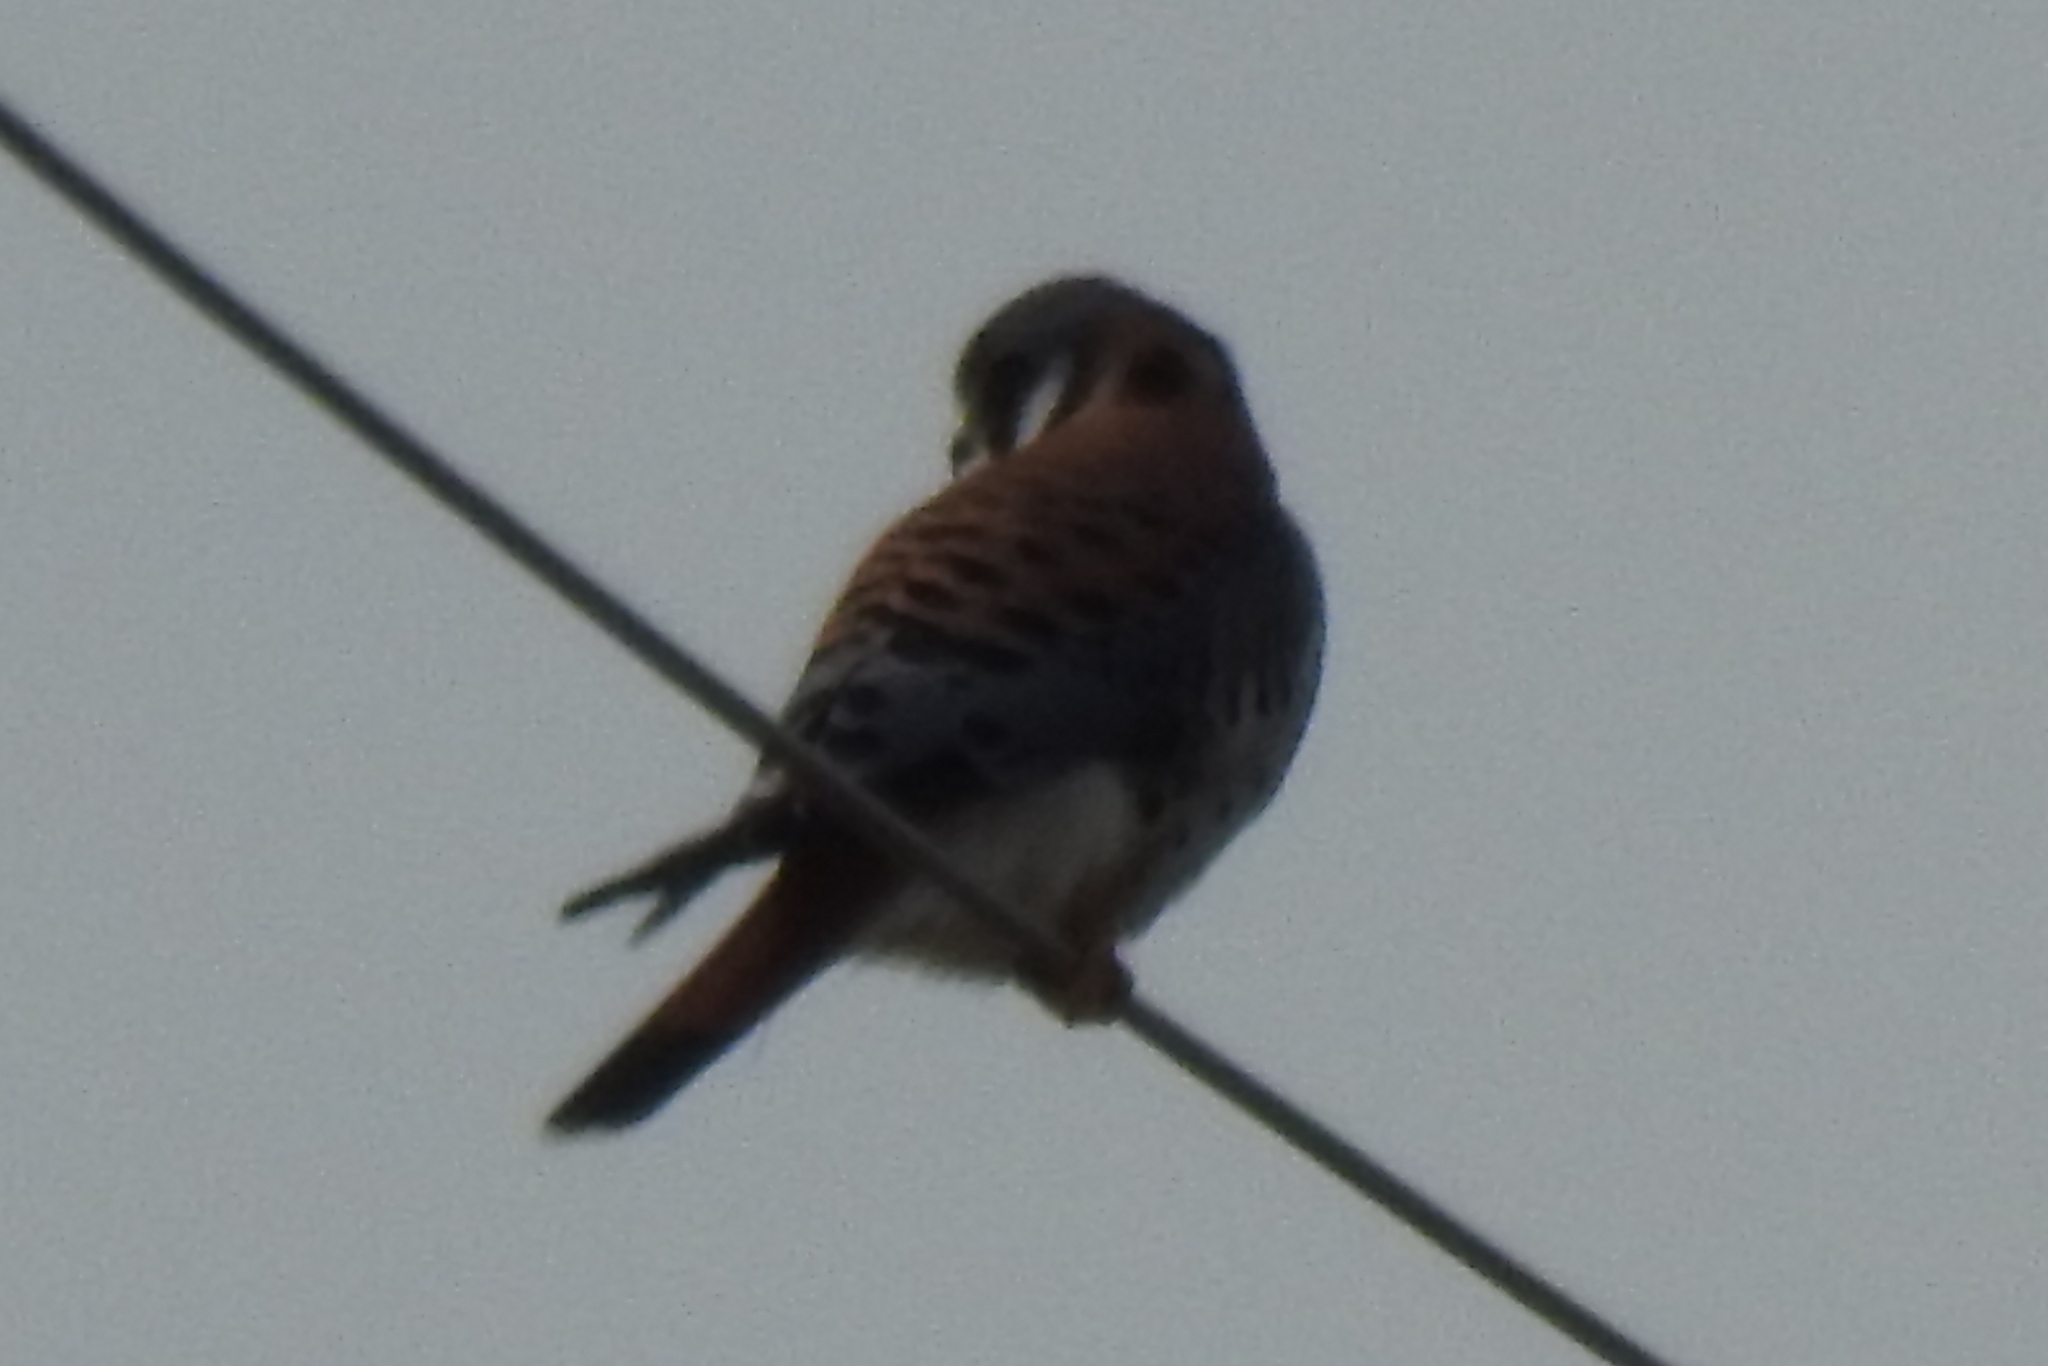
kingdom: Animalia
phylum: Chordata
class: Aves
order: Falconiformes
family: Falconidae
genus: Falco
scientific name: Falco sparverius
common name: American kestrel
